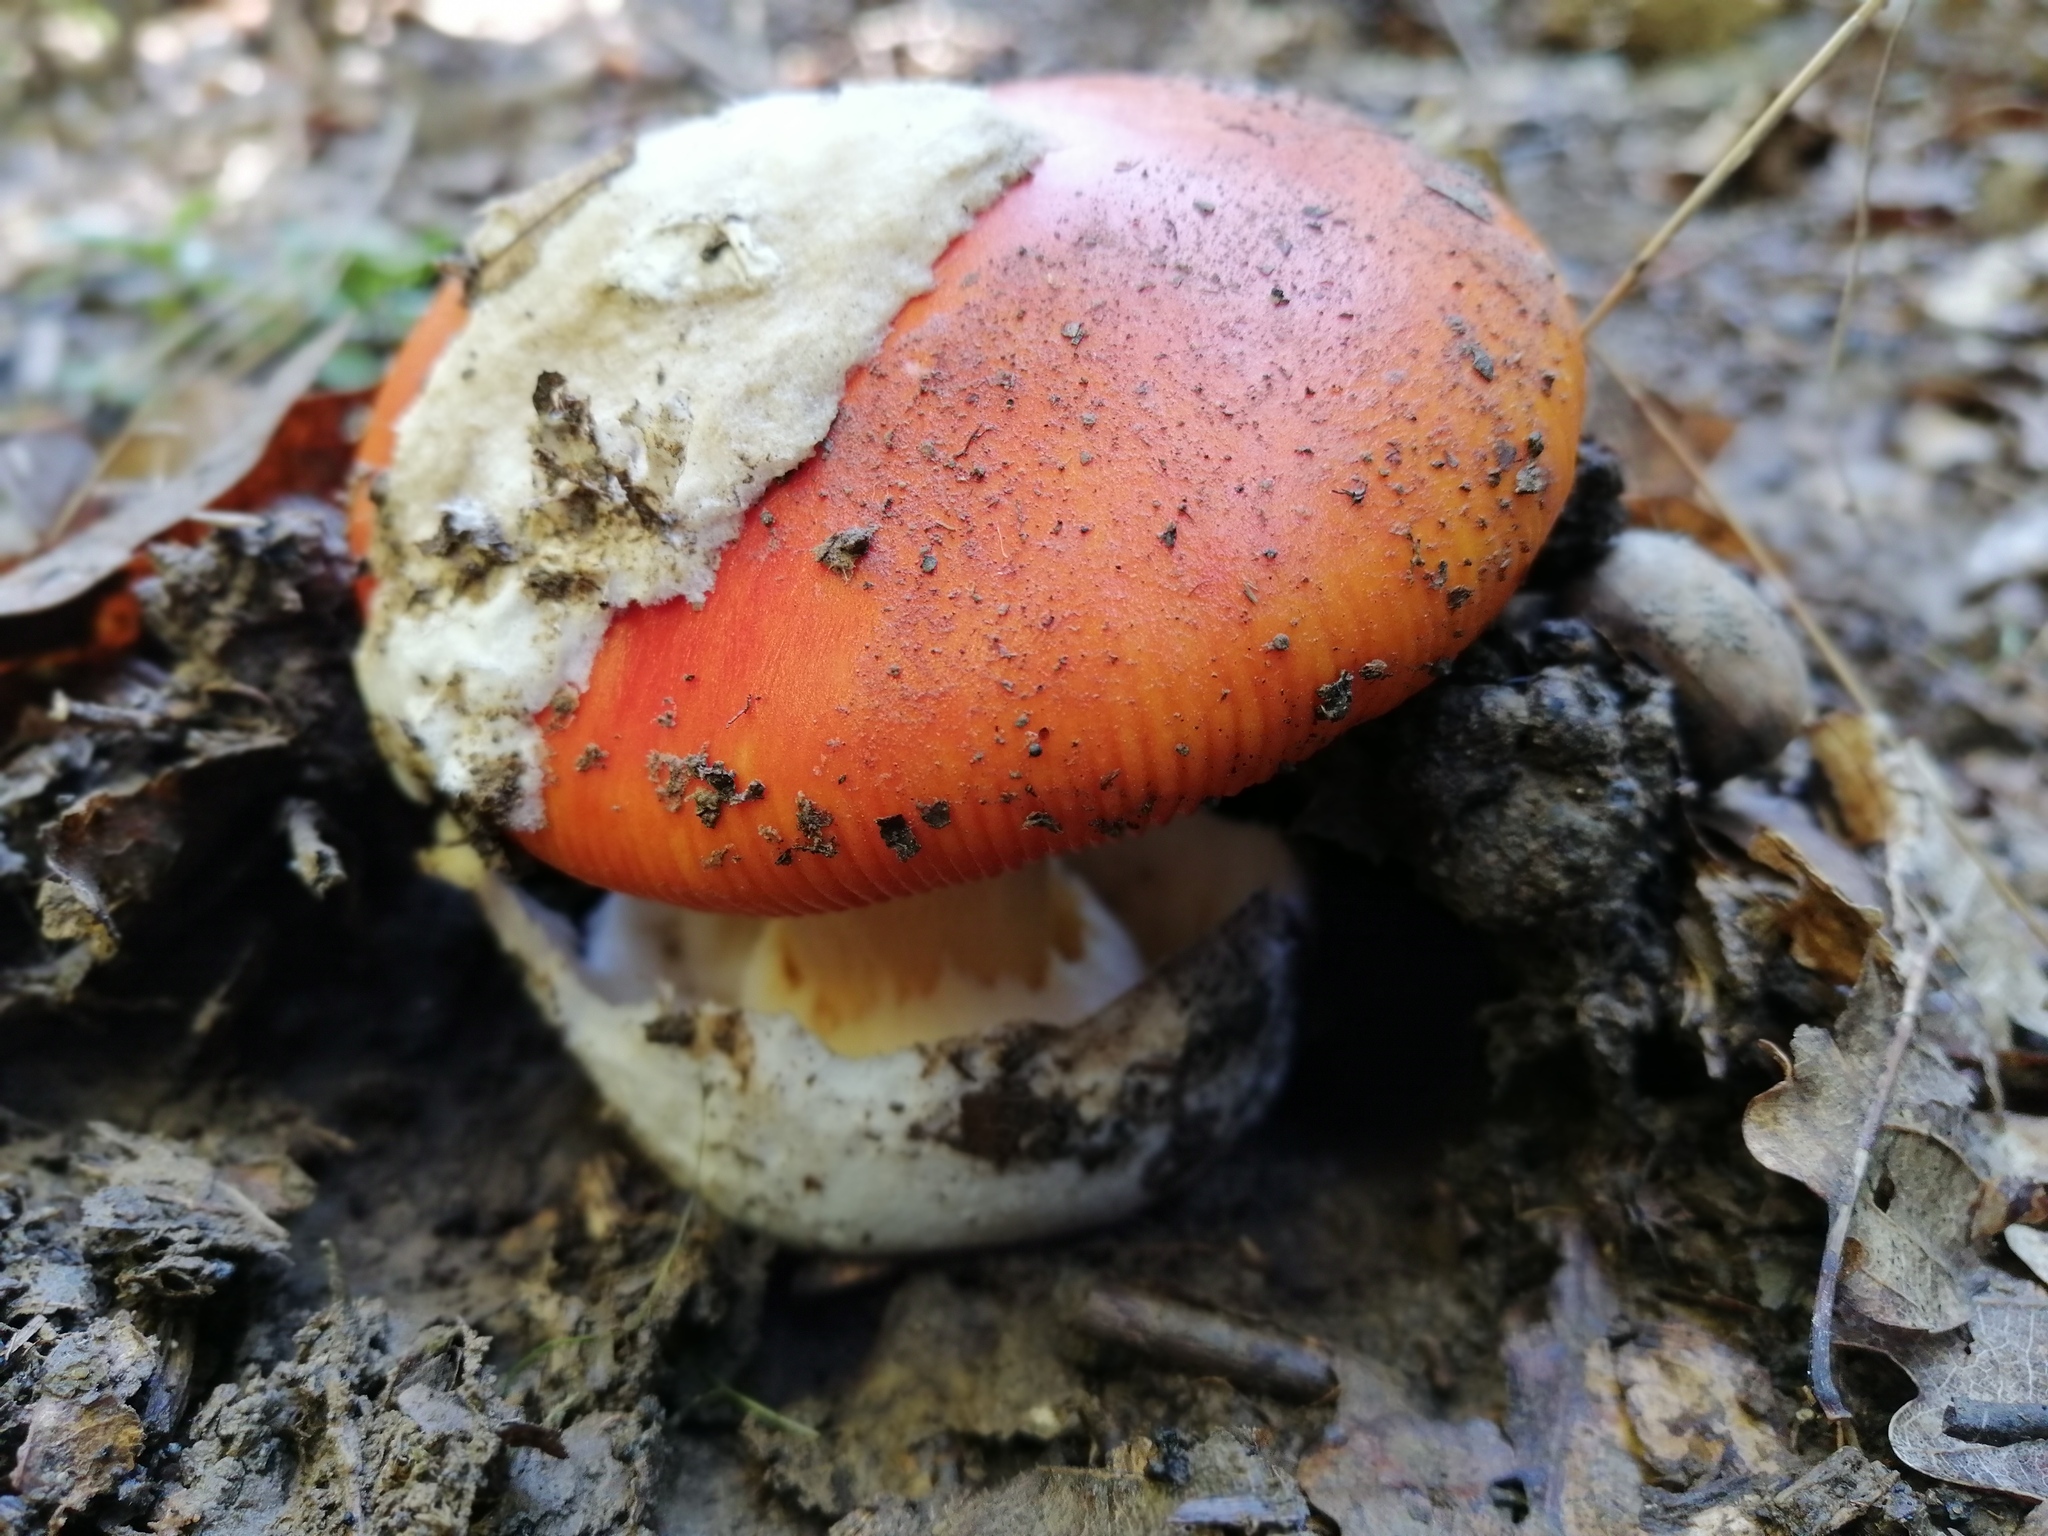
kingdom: Fungi
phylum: Basidiomycota
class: Agaricomycetes
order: Agaricales
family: Amanitaceae
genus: Amanita
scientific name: Amanita caesarea
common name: Caesar's amanita
